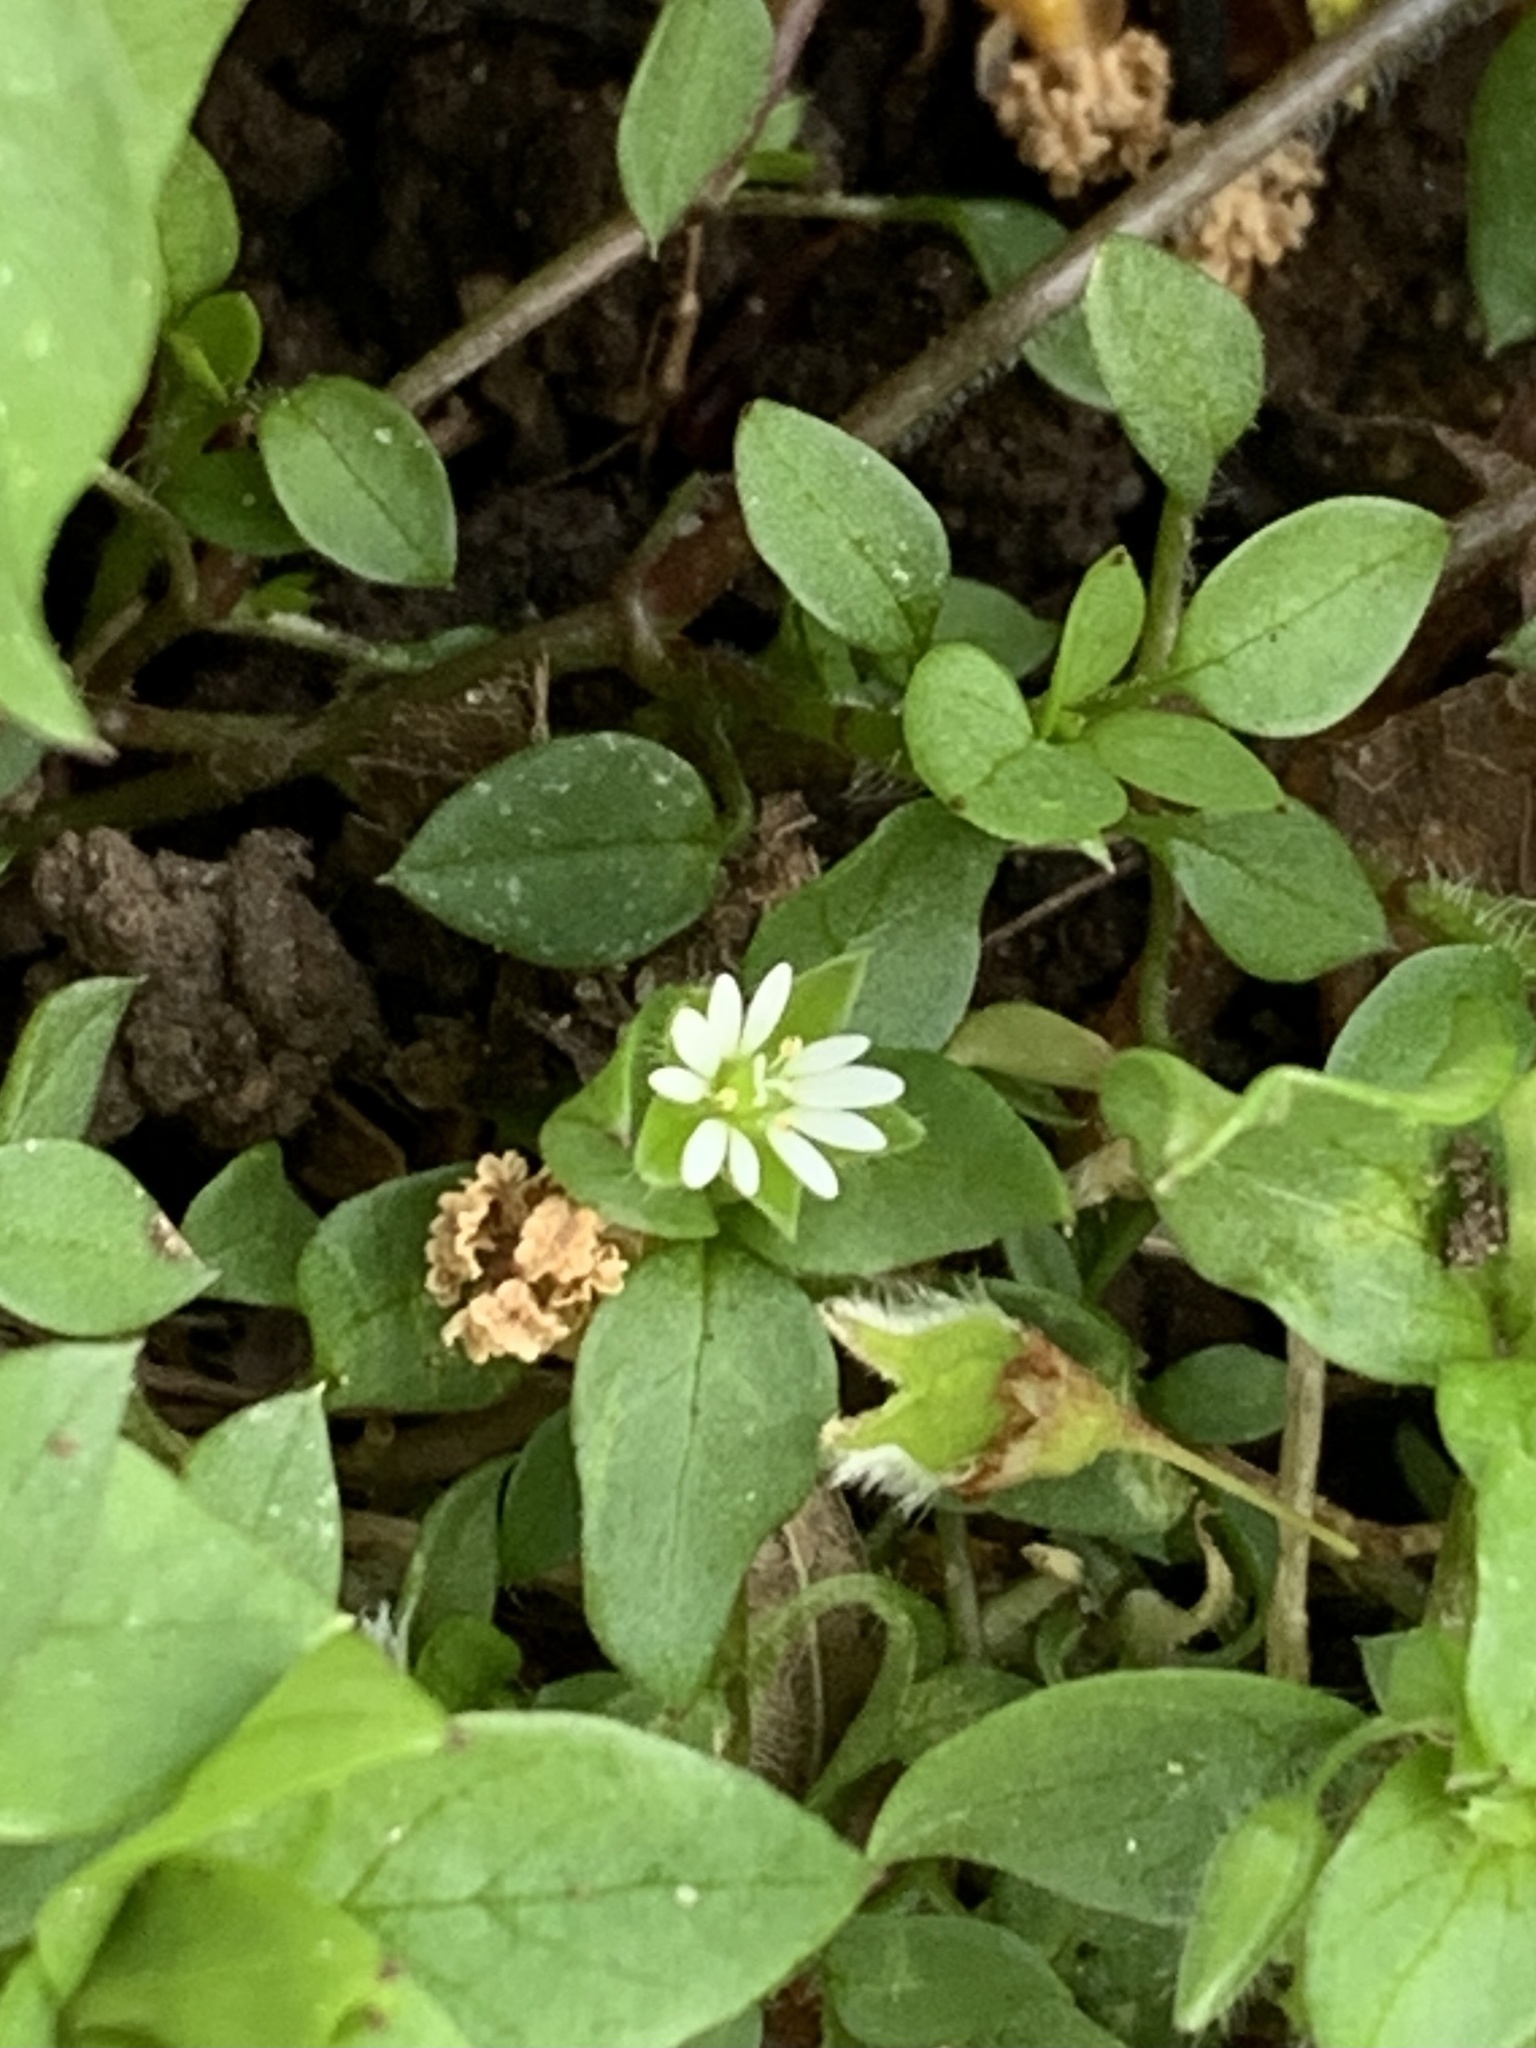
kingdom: Plantae
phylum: Tracheophyta
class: Magnoliopsida
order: Caryophyllales
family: Caryophyllaceae
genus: Stellaria
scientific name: Stellaria media
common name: Common chickweed
